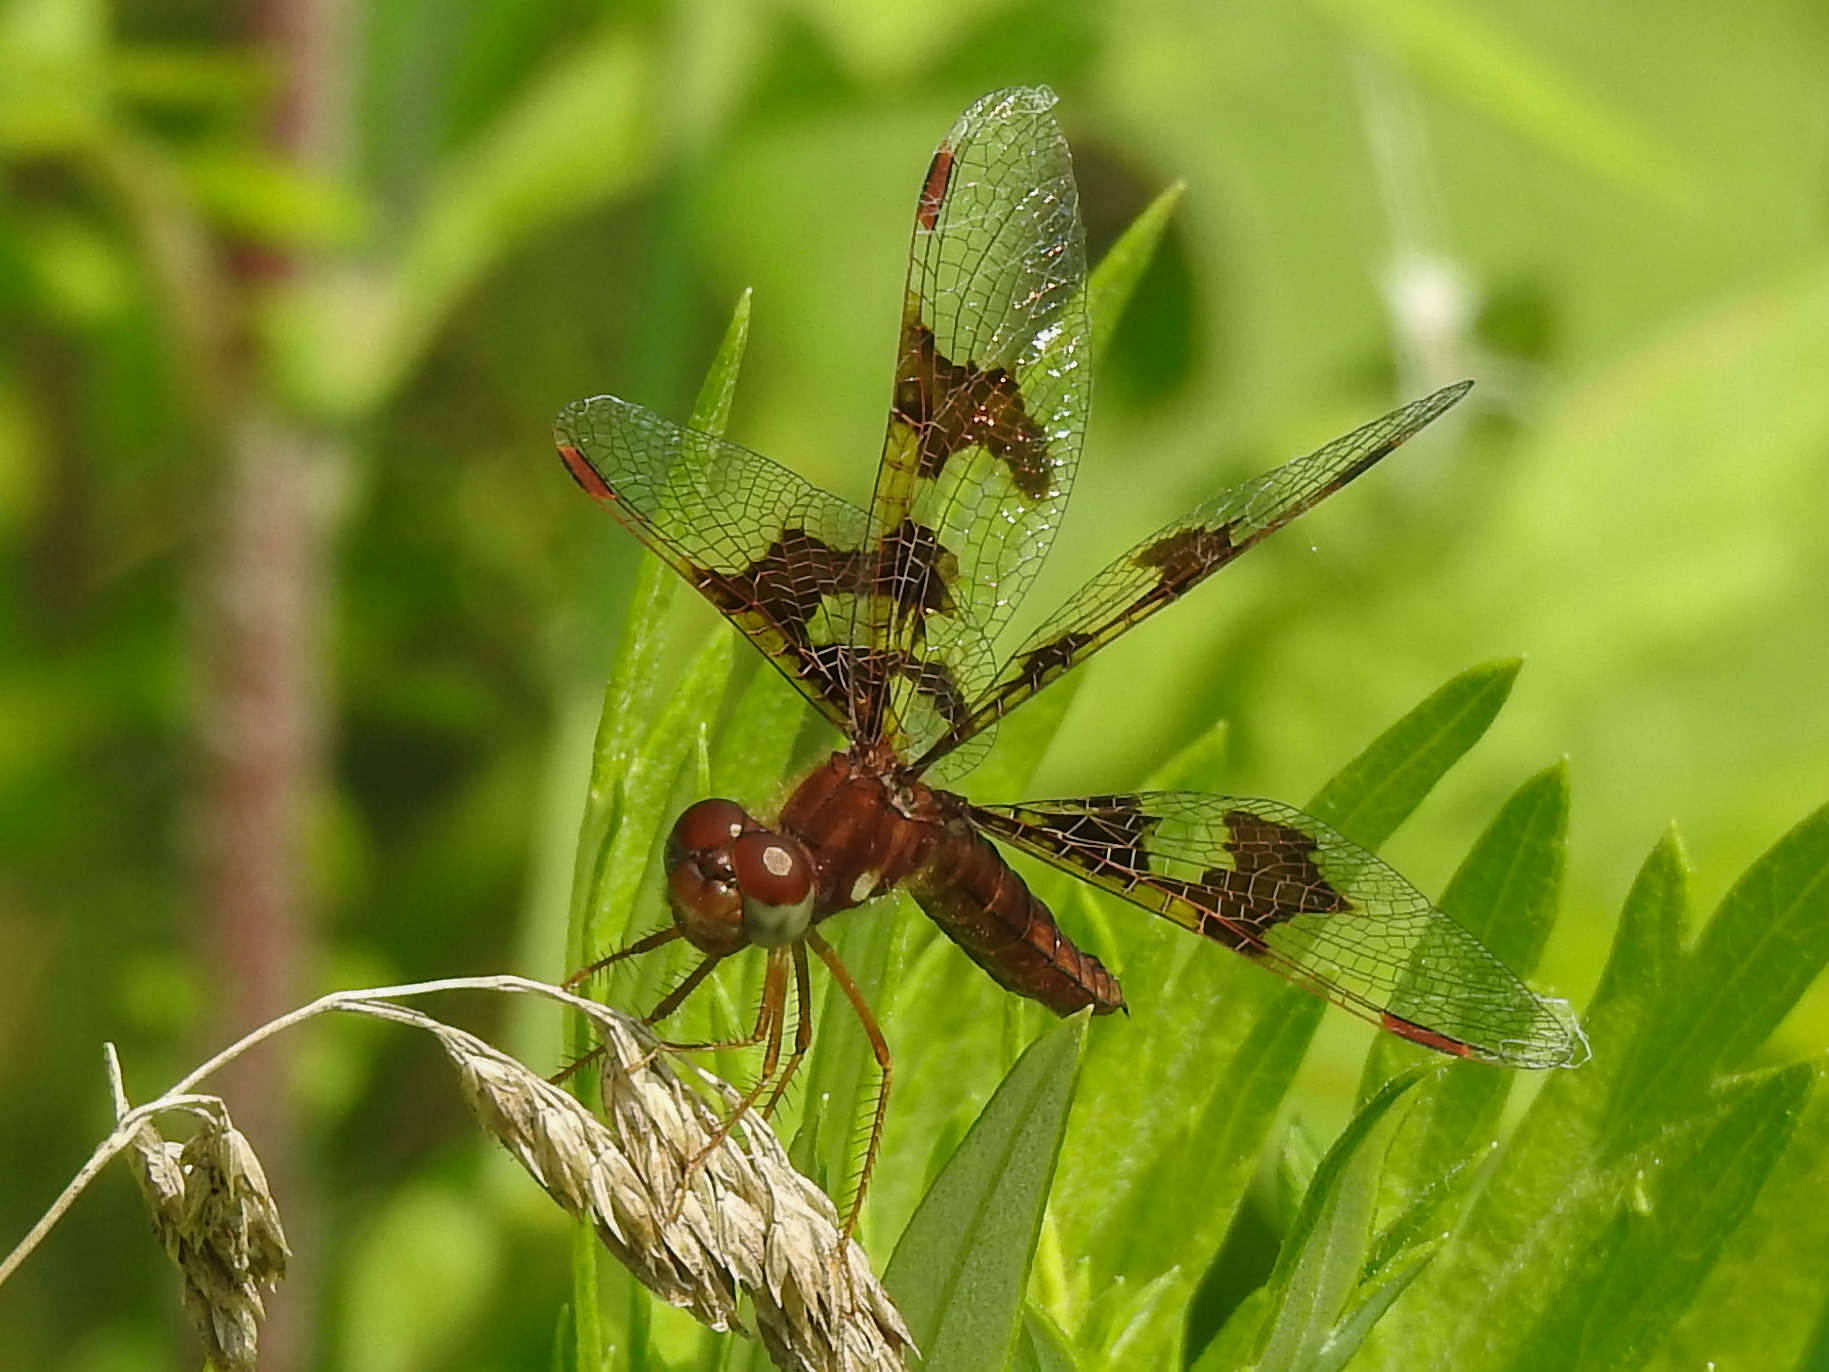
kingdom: Animalia
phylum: Arthropoda
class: Insecta
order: Odonata
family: Libellulidae
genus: Perithemis
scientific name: Perithemis tenera
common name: Eastern amberwing
